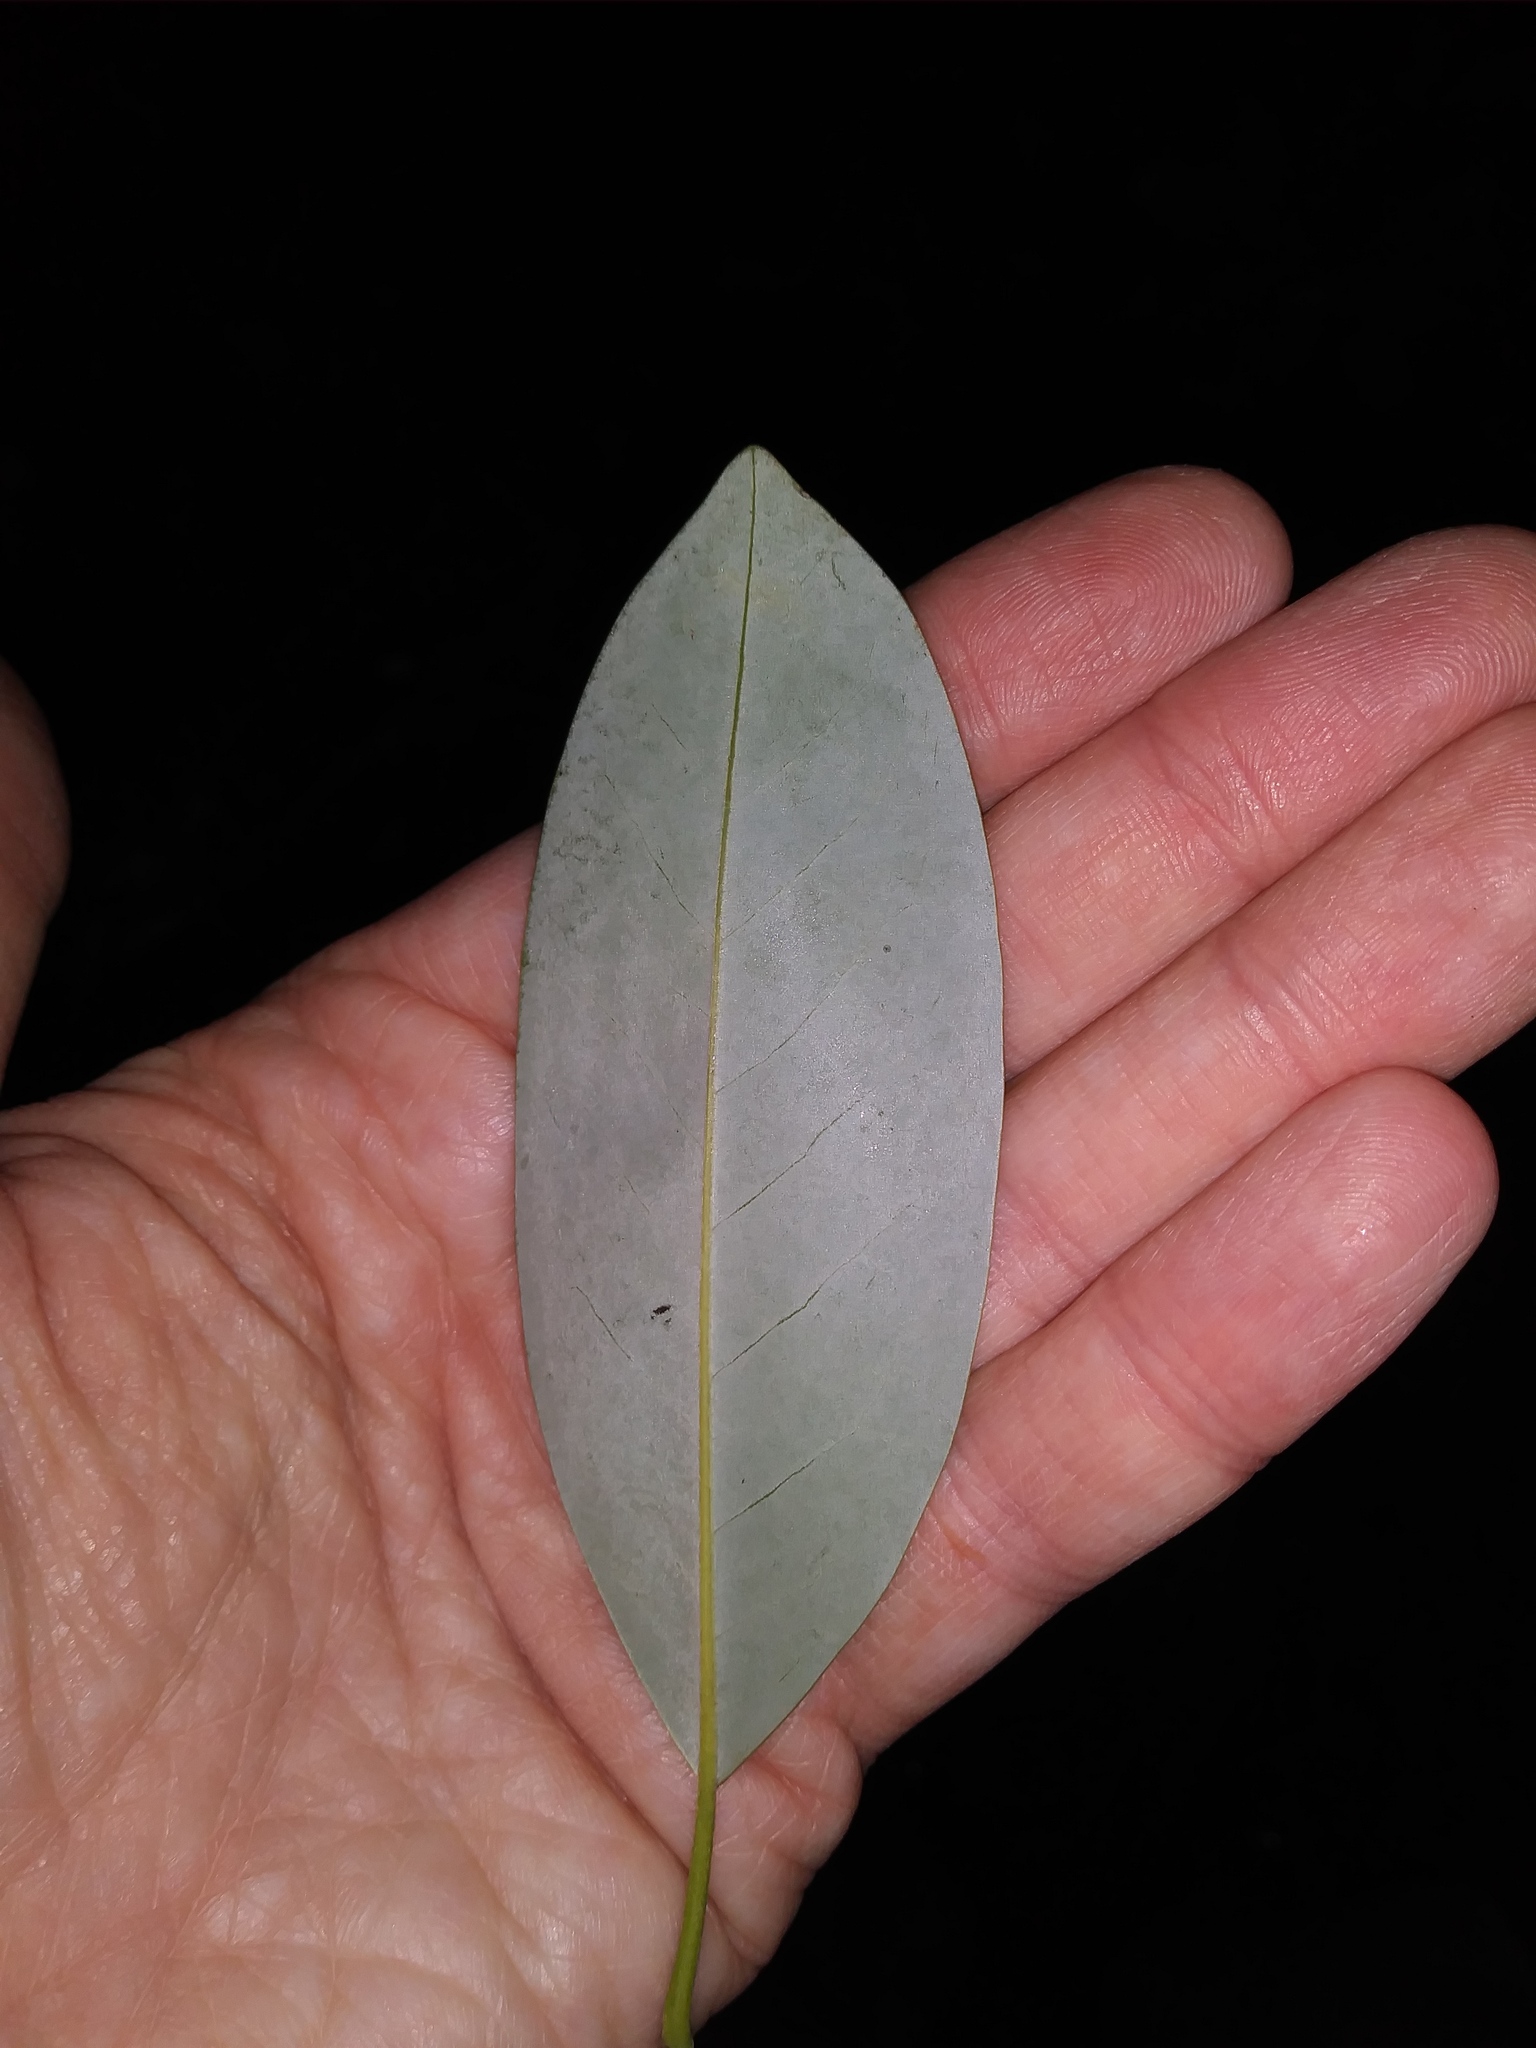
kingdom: Plantae
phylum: Tracheophyta
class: Magnoliopsida
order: Magnoliales
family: Magnoliaceae
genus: Magnolia
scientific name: Magnolia virginiana
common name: Swamp bay
